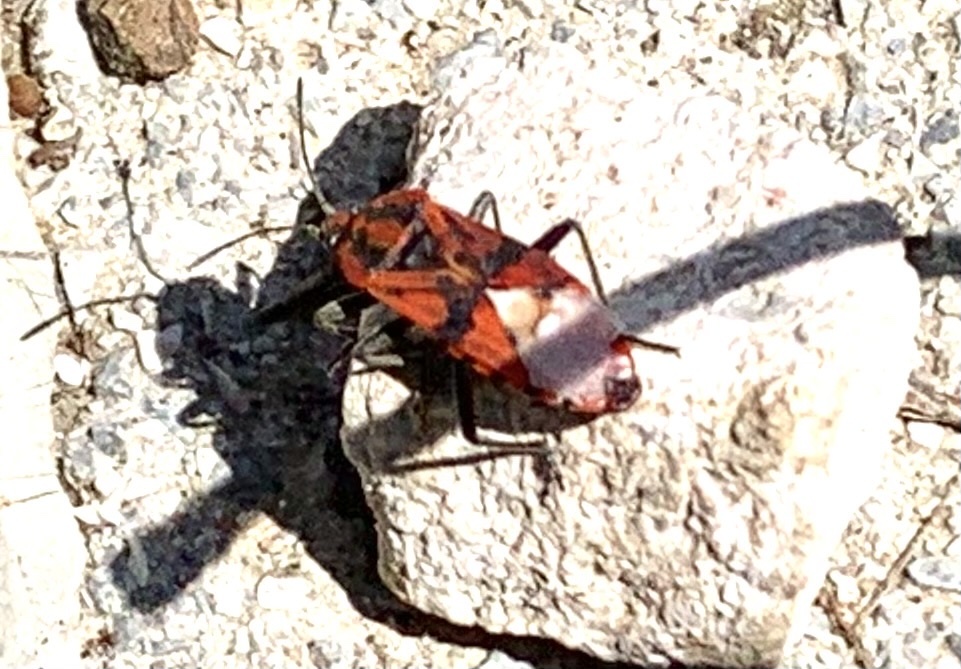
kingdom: Animalia
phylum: Arthropoda
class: Insecta
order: Hemiptera
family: Lygaeidae
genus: Spilostethus
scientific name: Spilostethus pandurus
